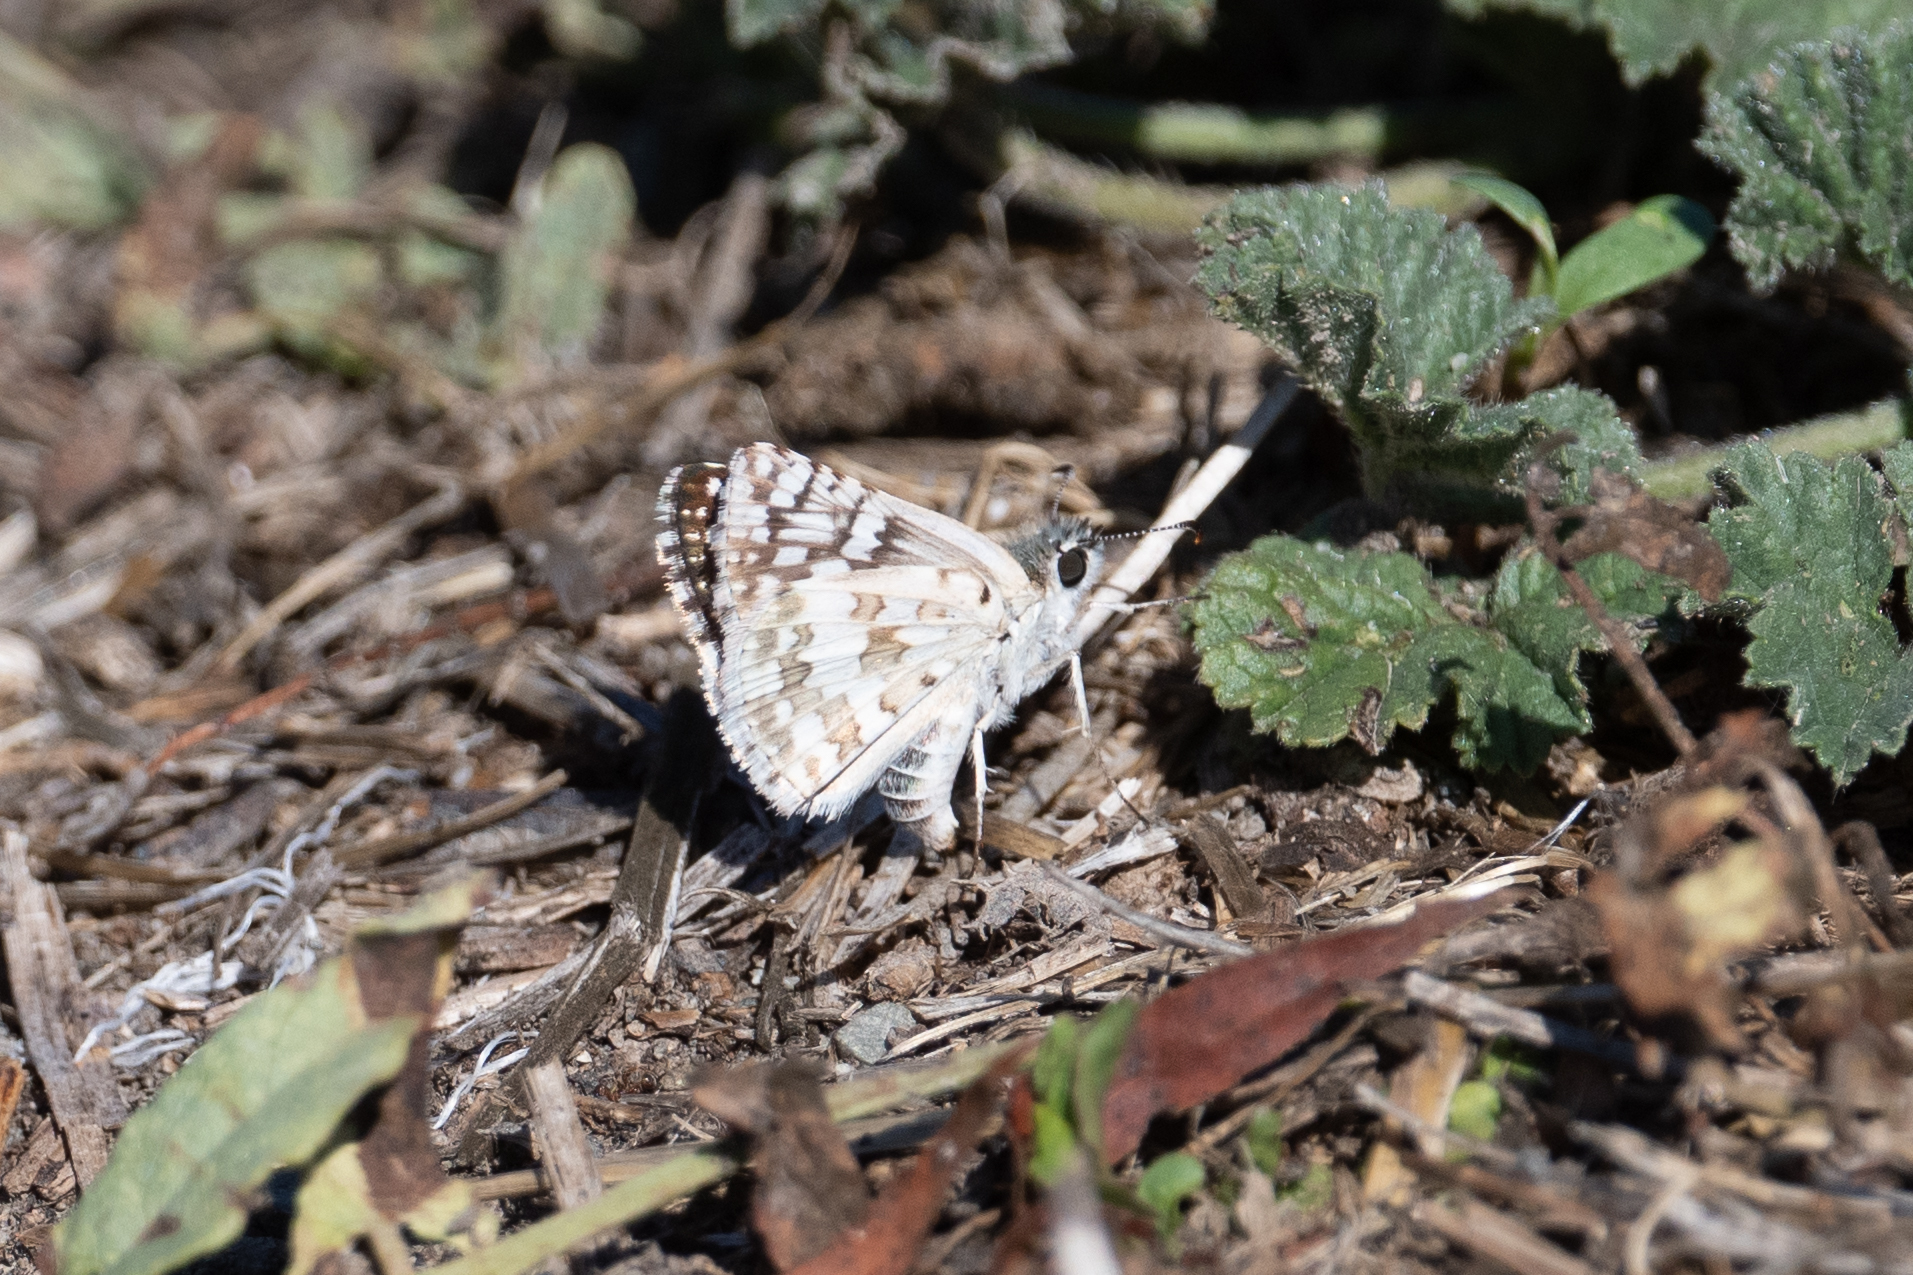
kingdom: Animalia
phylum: Arthropoda
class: Insecta
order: Lepidoptera
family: Hesperiidae
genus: Burnsius
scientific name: Burnsius communis
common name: Common checkered-skipper
